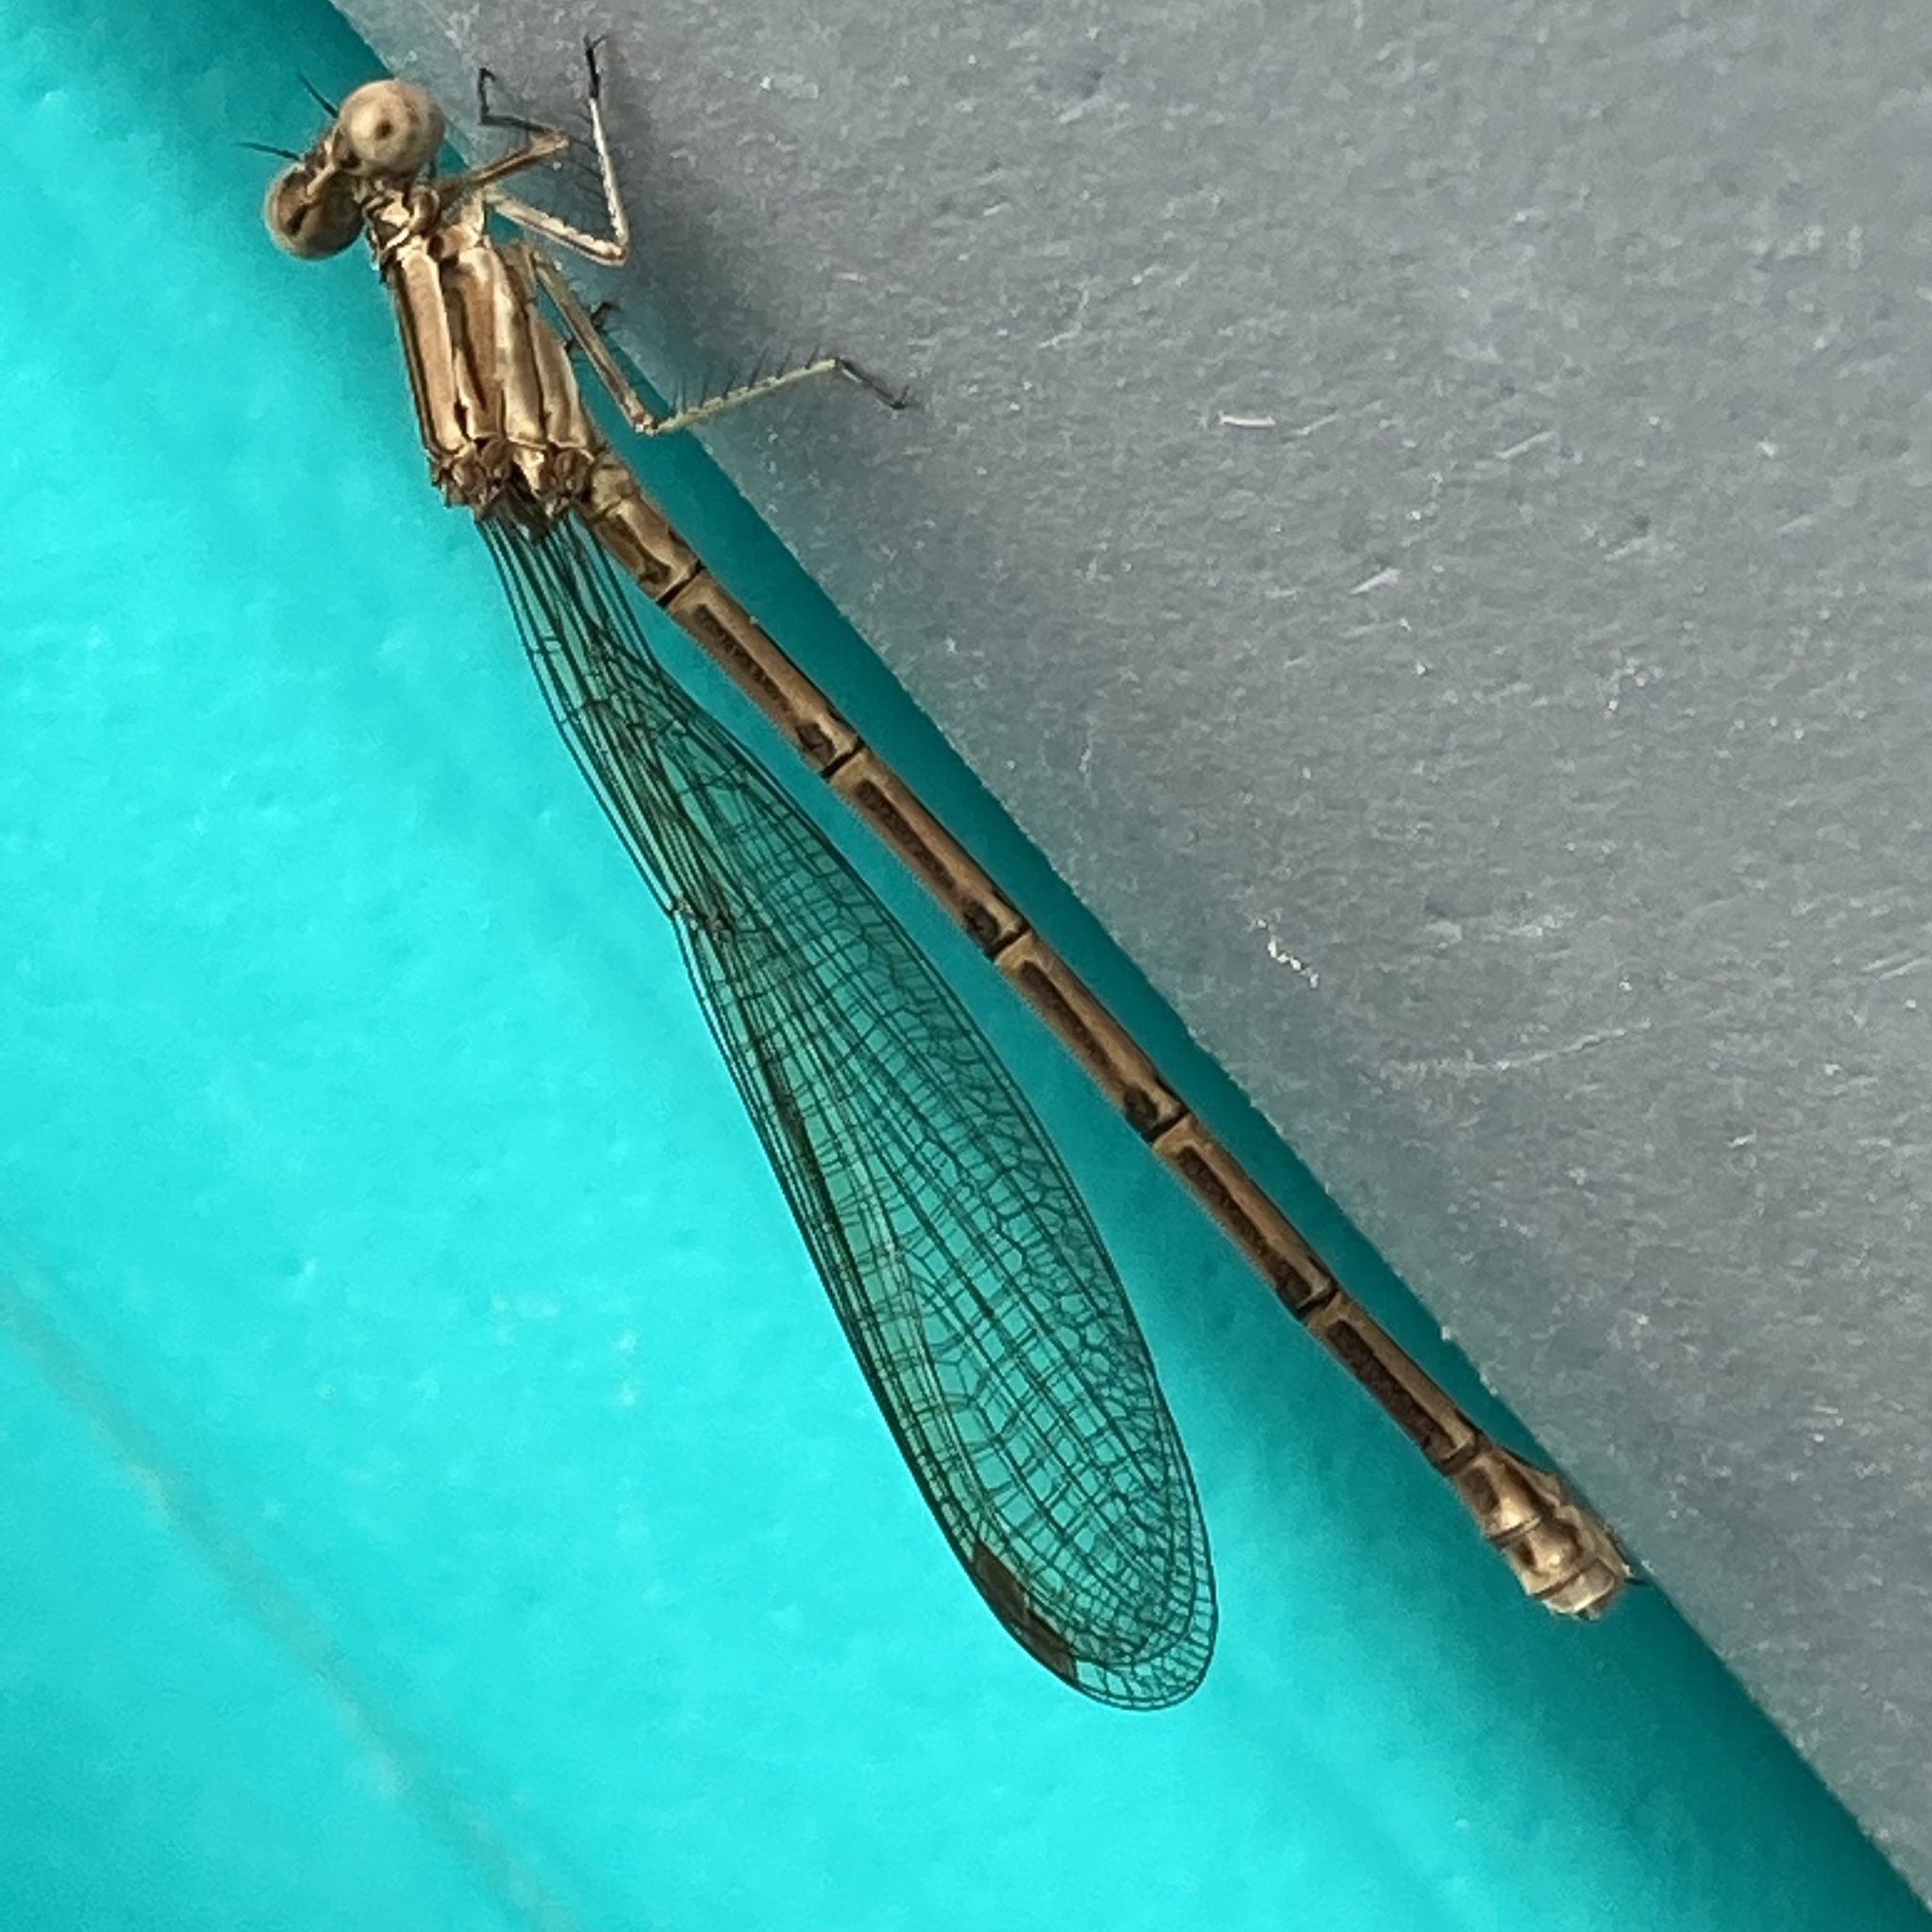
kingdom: Animalia
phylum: Arthropoda
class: Insecta
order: Odonata
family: Coenagrionidae
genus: Argia
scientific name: Argia fumipennis
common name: Variable dancer
